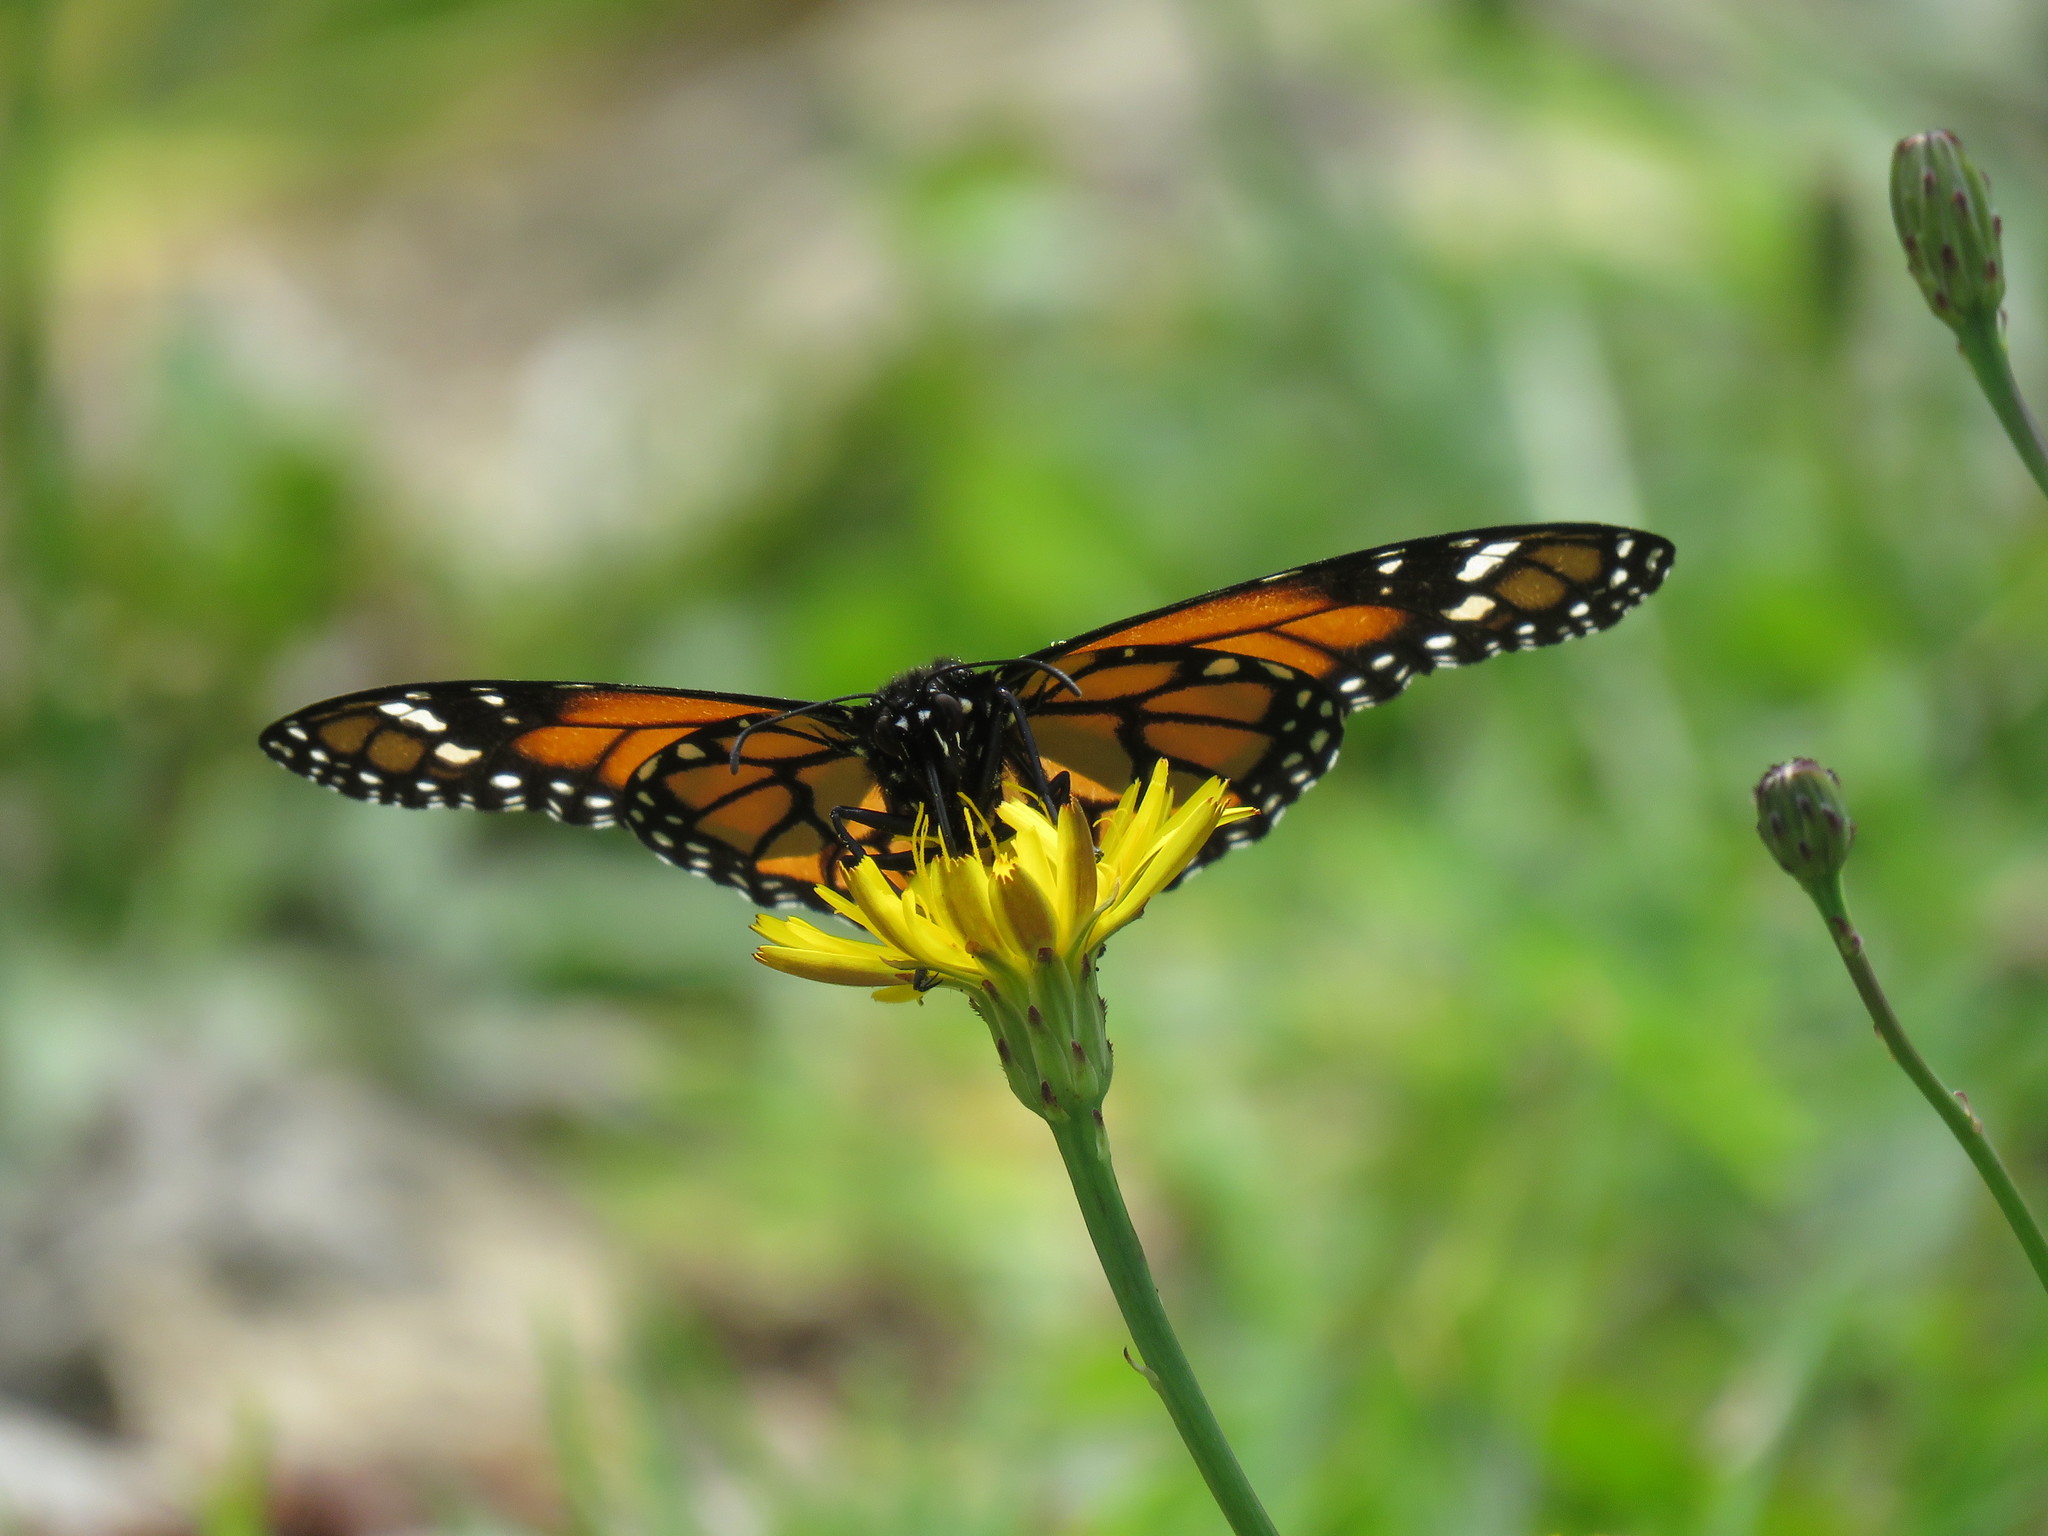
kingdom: Plantae
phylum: Tracheophyta
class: Magnoliopsida
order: Asterales
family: Asteraceae
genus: Hypochaeris
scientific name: Hypochaeris radicata
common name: Flatweed
